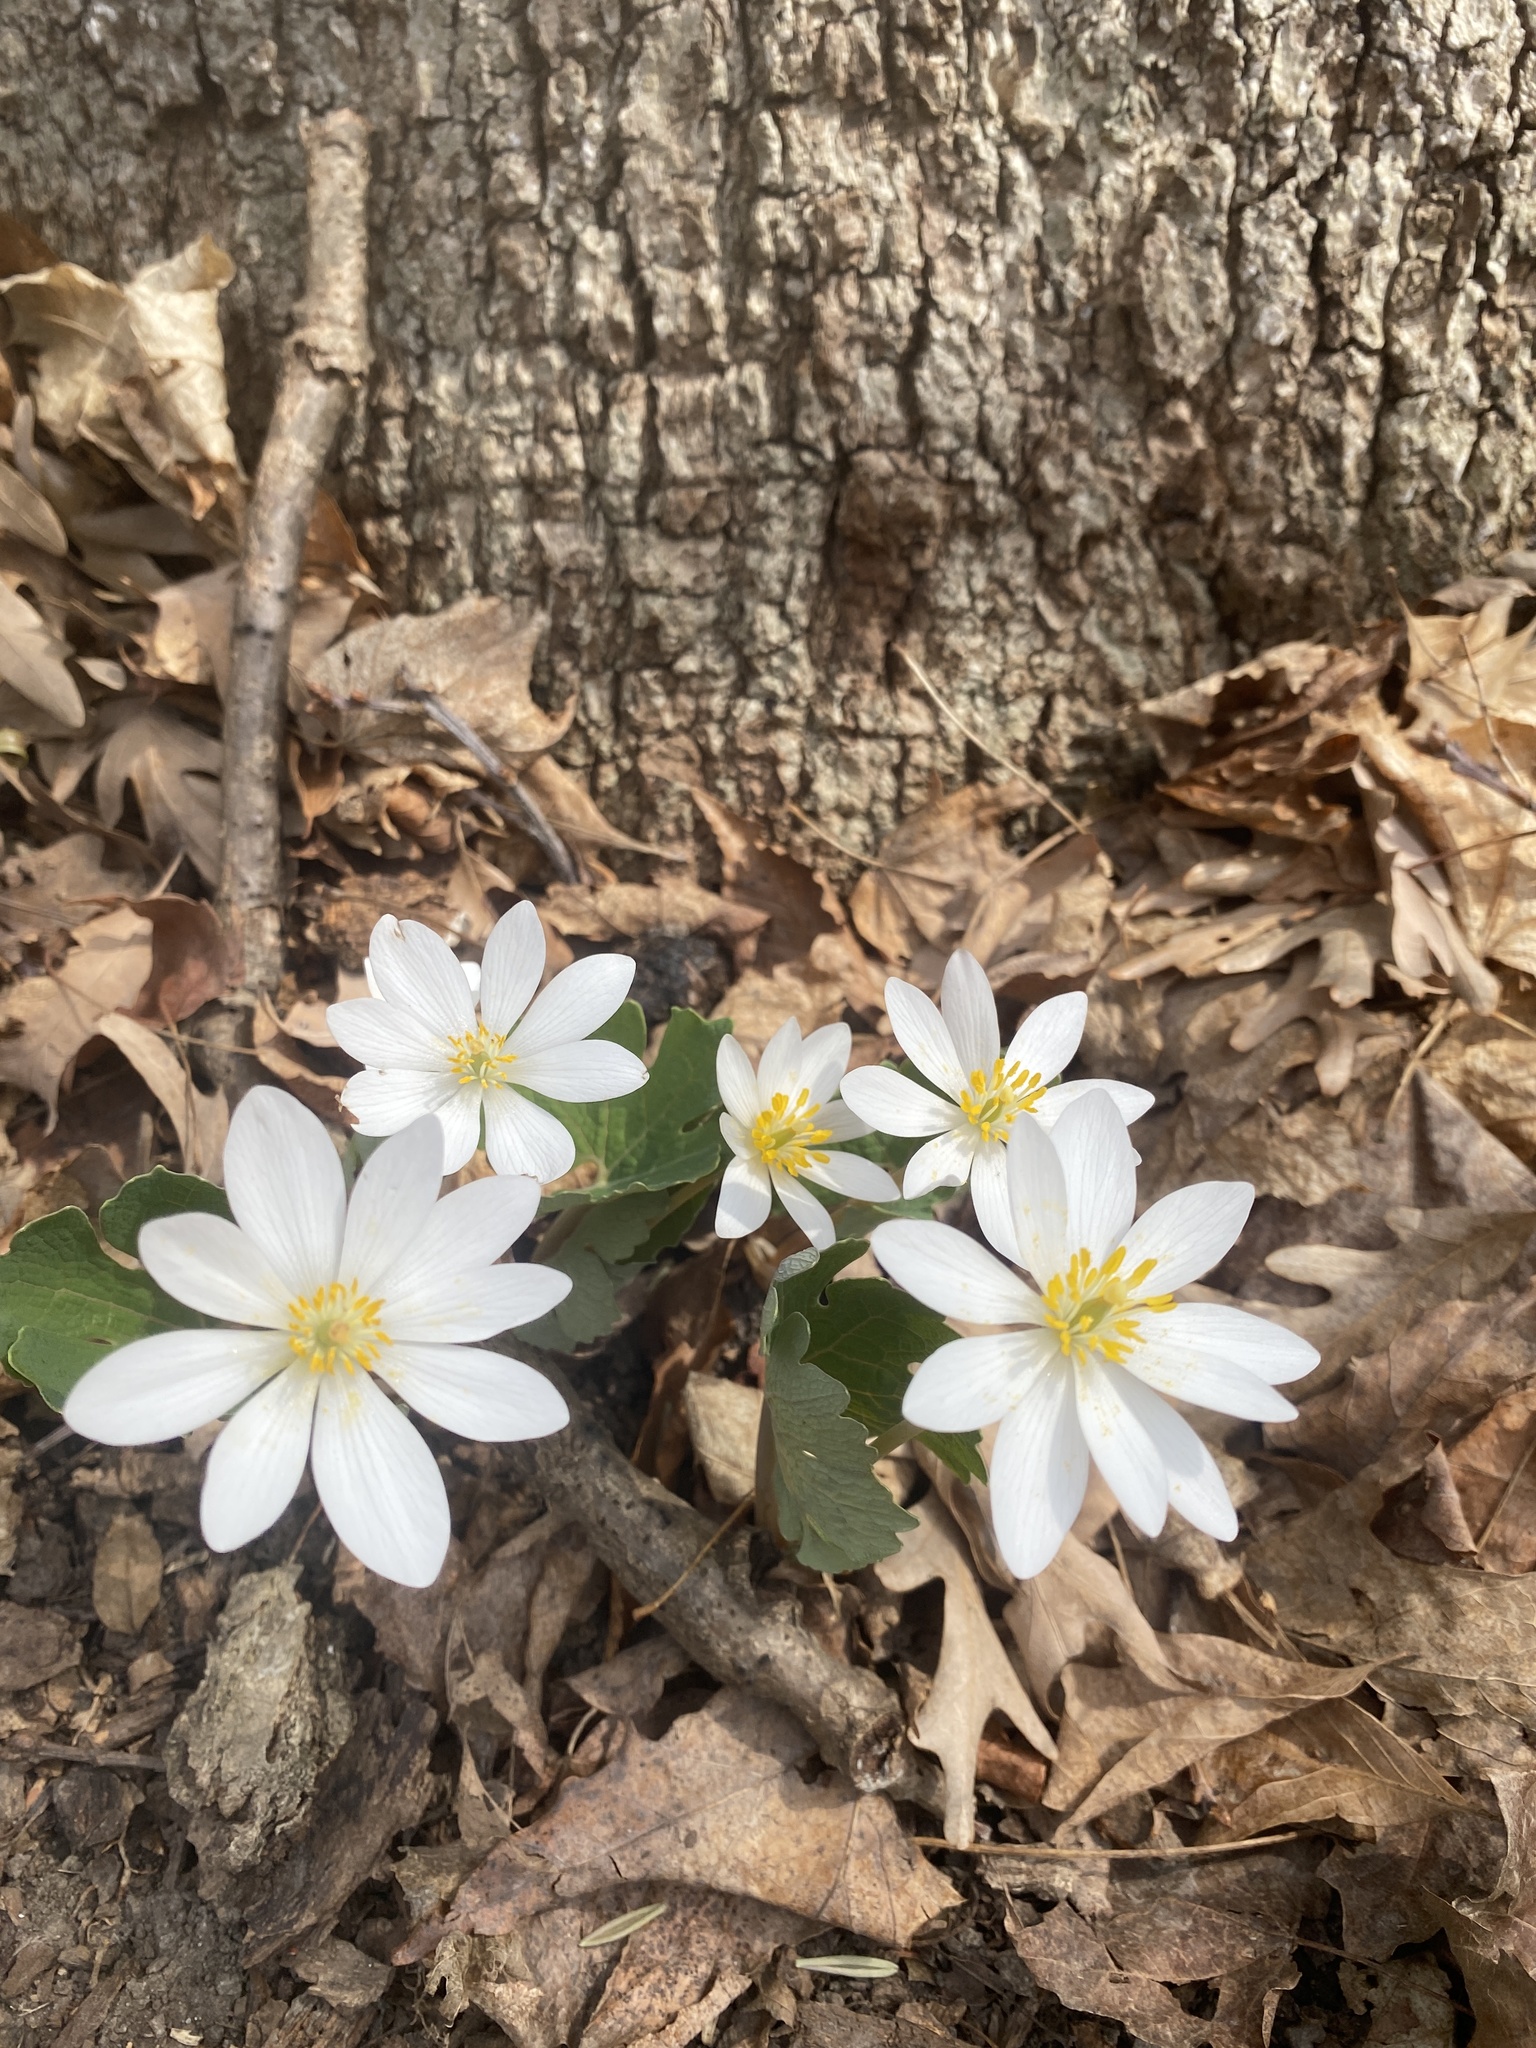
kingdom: Plantae
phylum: Tracheophyta
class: Magnoliopsida
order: Ranunculales
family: Papaveraceae
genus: Sanguinaria
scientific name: Sanguinaria canadensis
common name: Bloodroot
